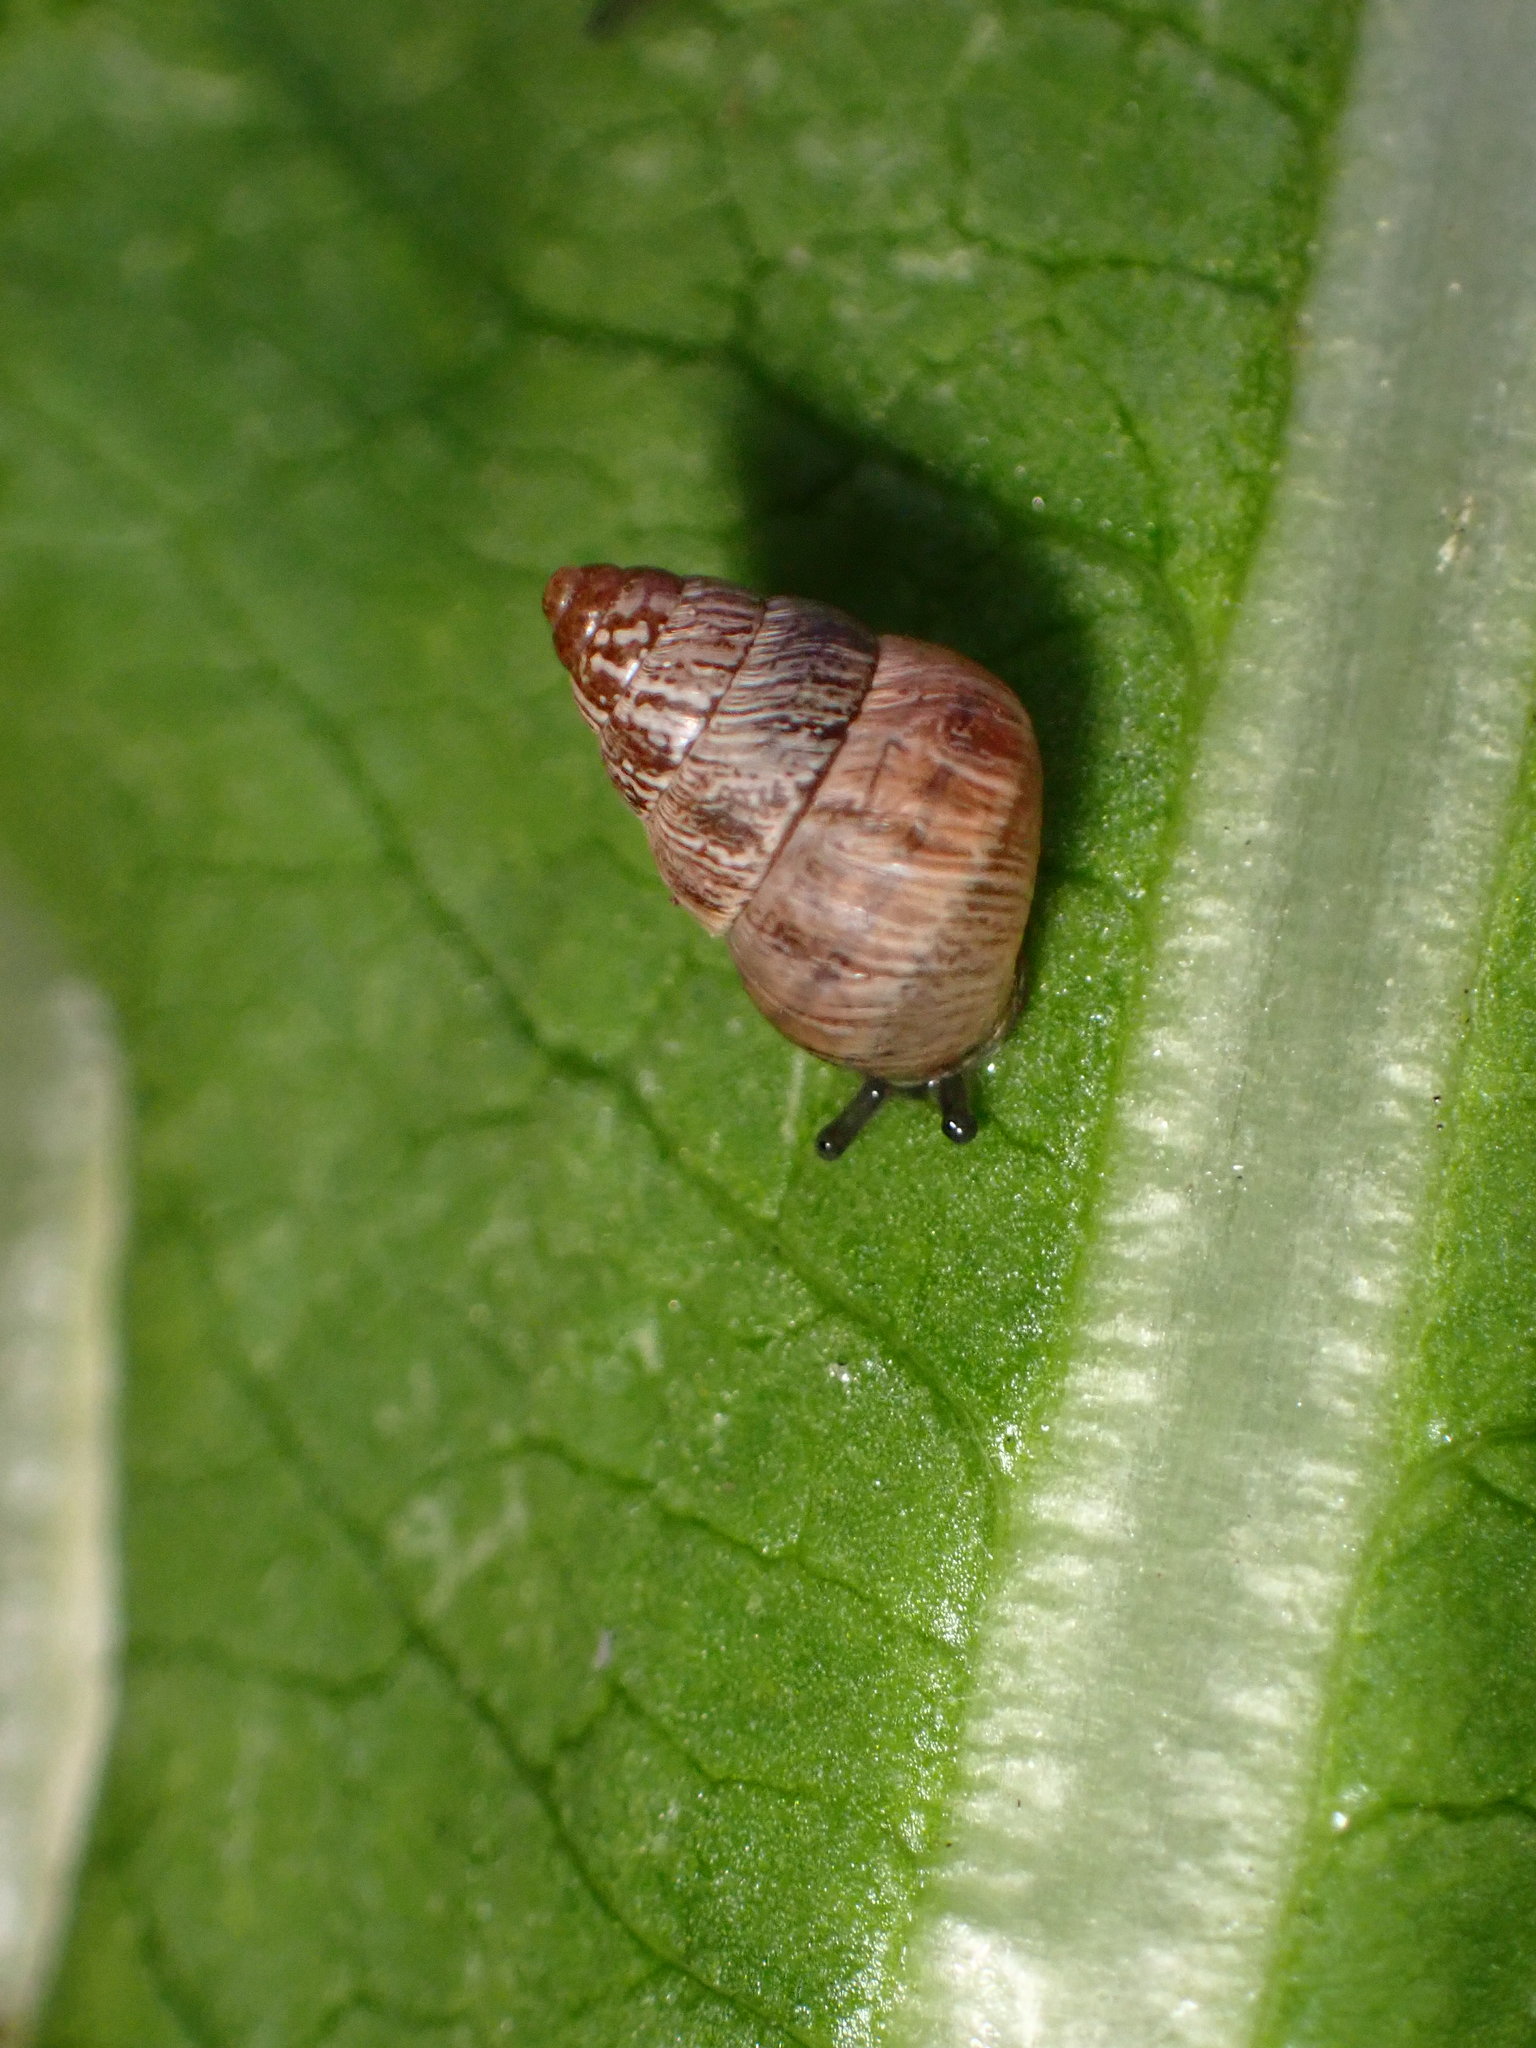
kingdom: Animalia
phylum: Mollusca
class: Gastropoda
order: Stylommatophora
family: Geomitridae
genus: Cochlicella
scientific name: Cochlicella barbara
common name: Potbellied helicellid
